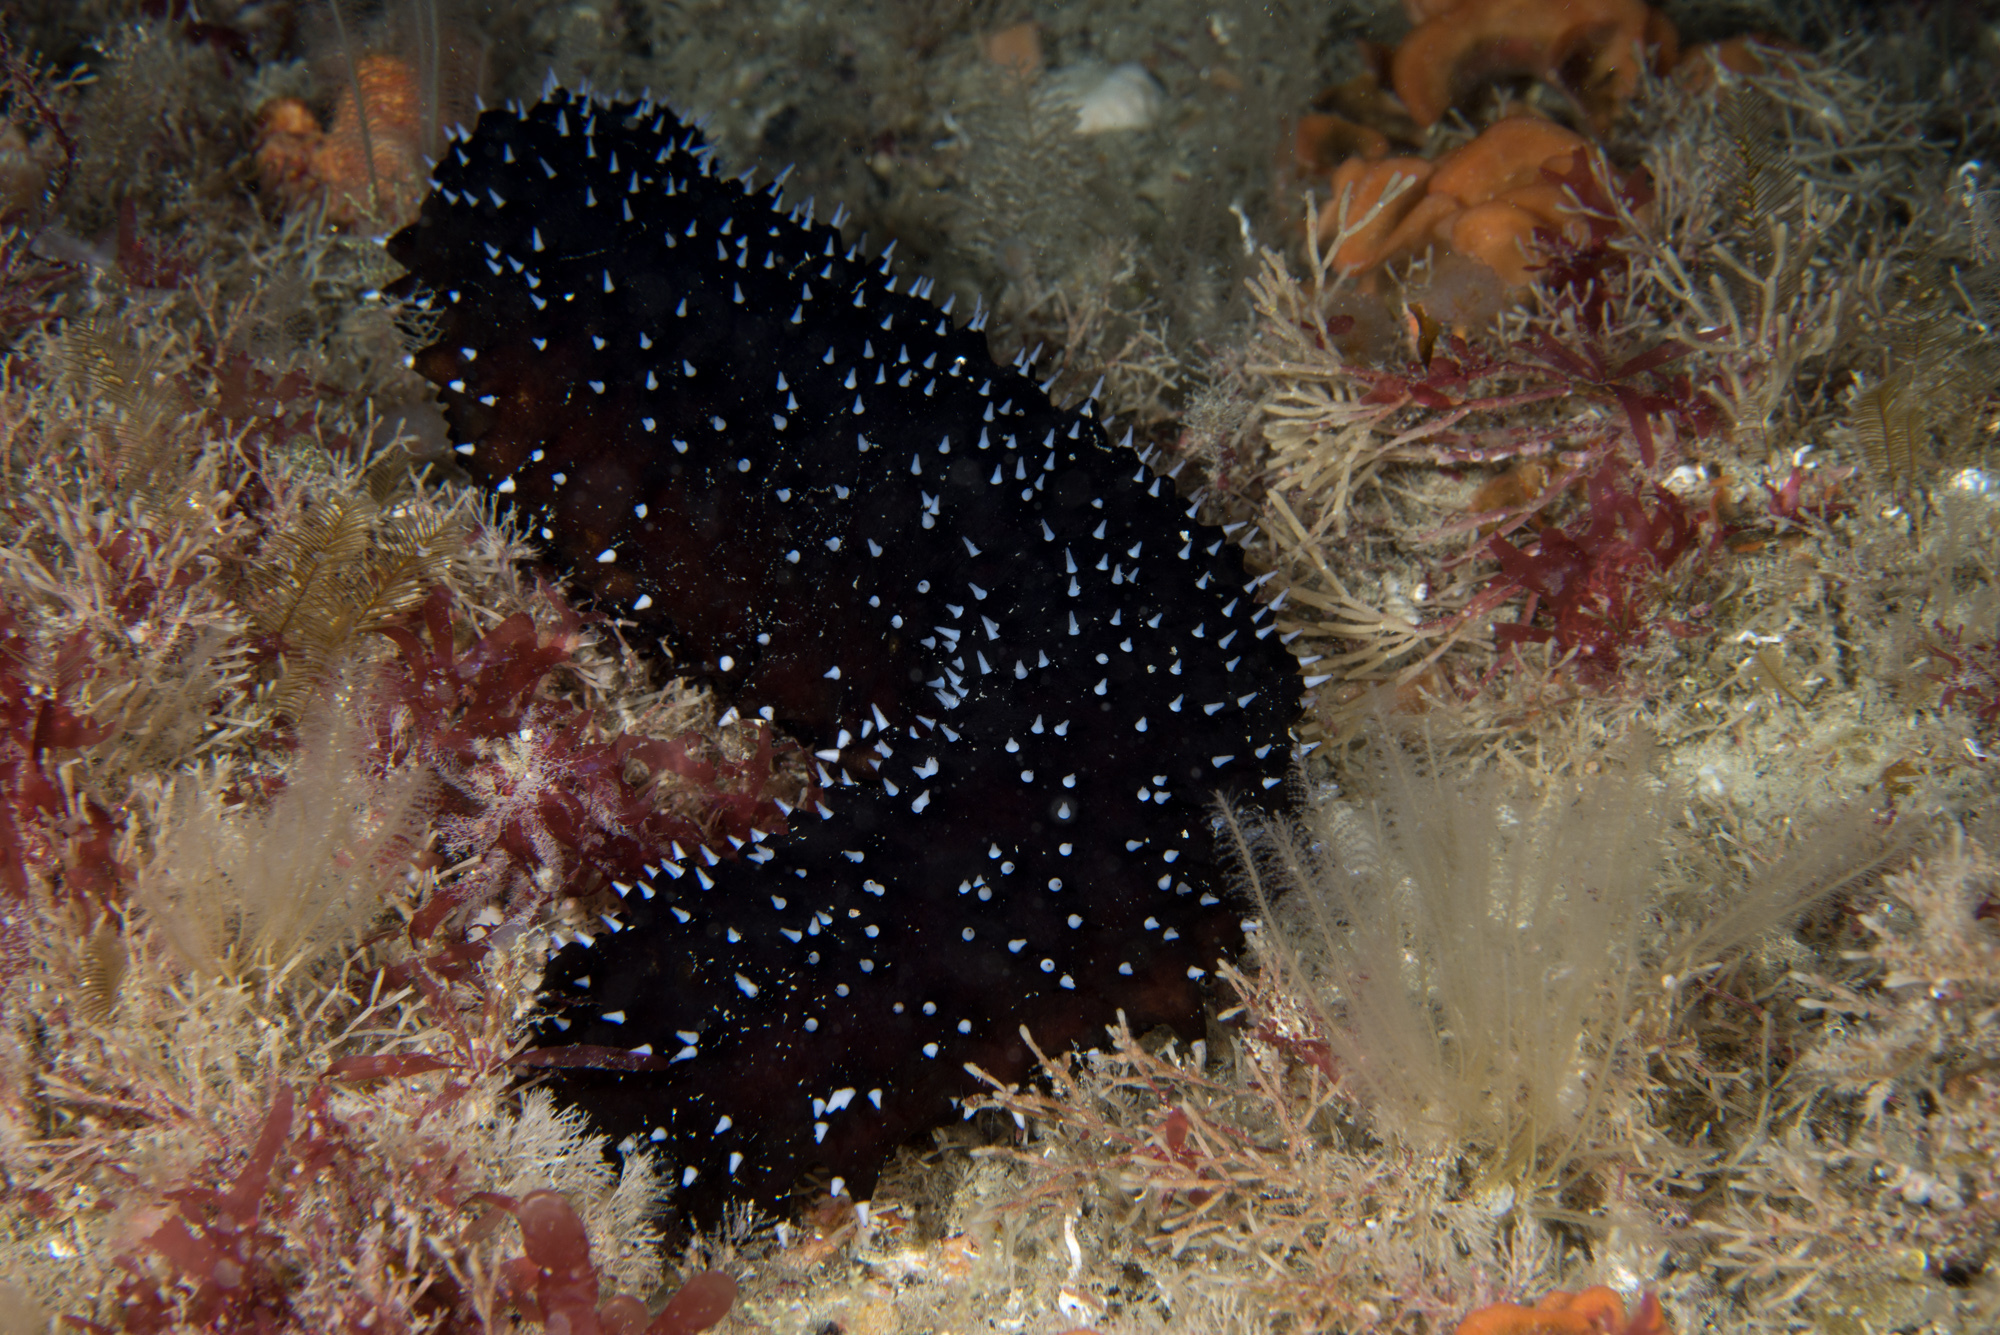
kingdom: Animalia
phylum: Echinodermata
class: Holothuroidea
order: Holothuriida
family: Holothuriidae
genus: Holothuria
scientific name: Holothuria forskali
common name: Black sea cucumber
